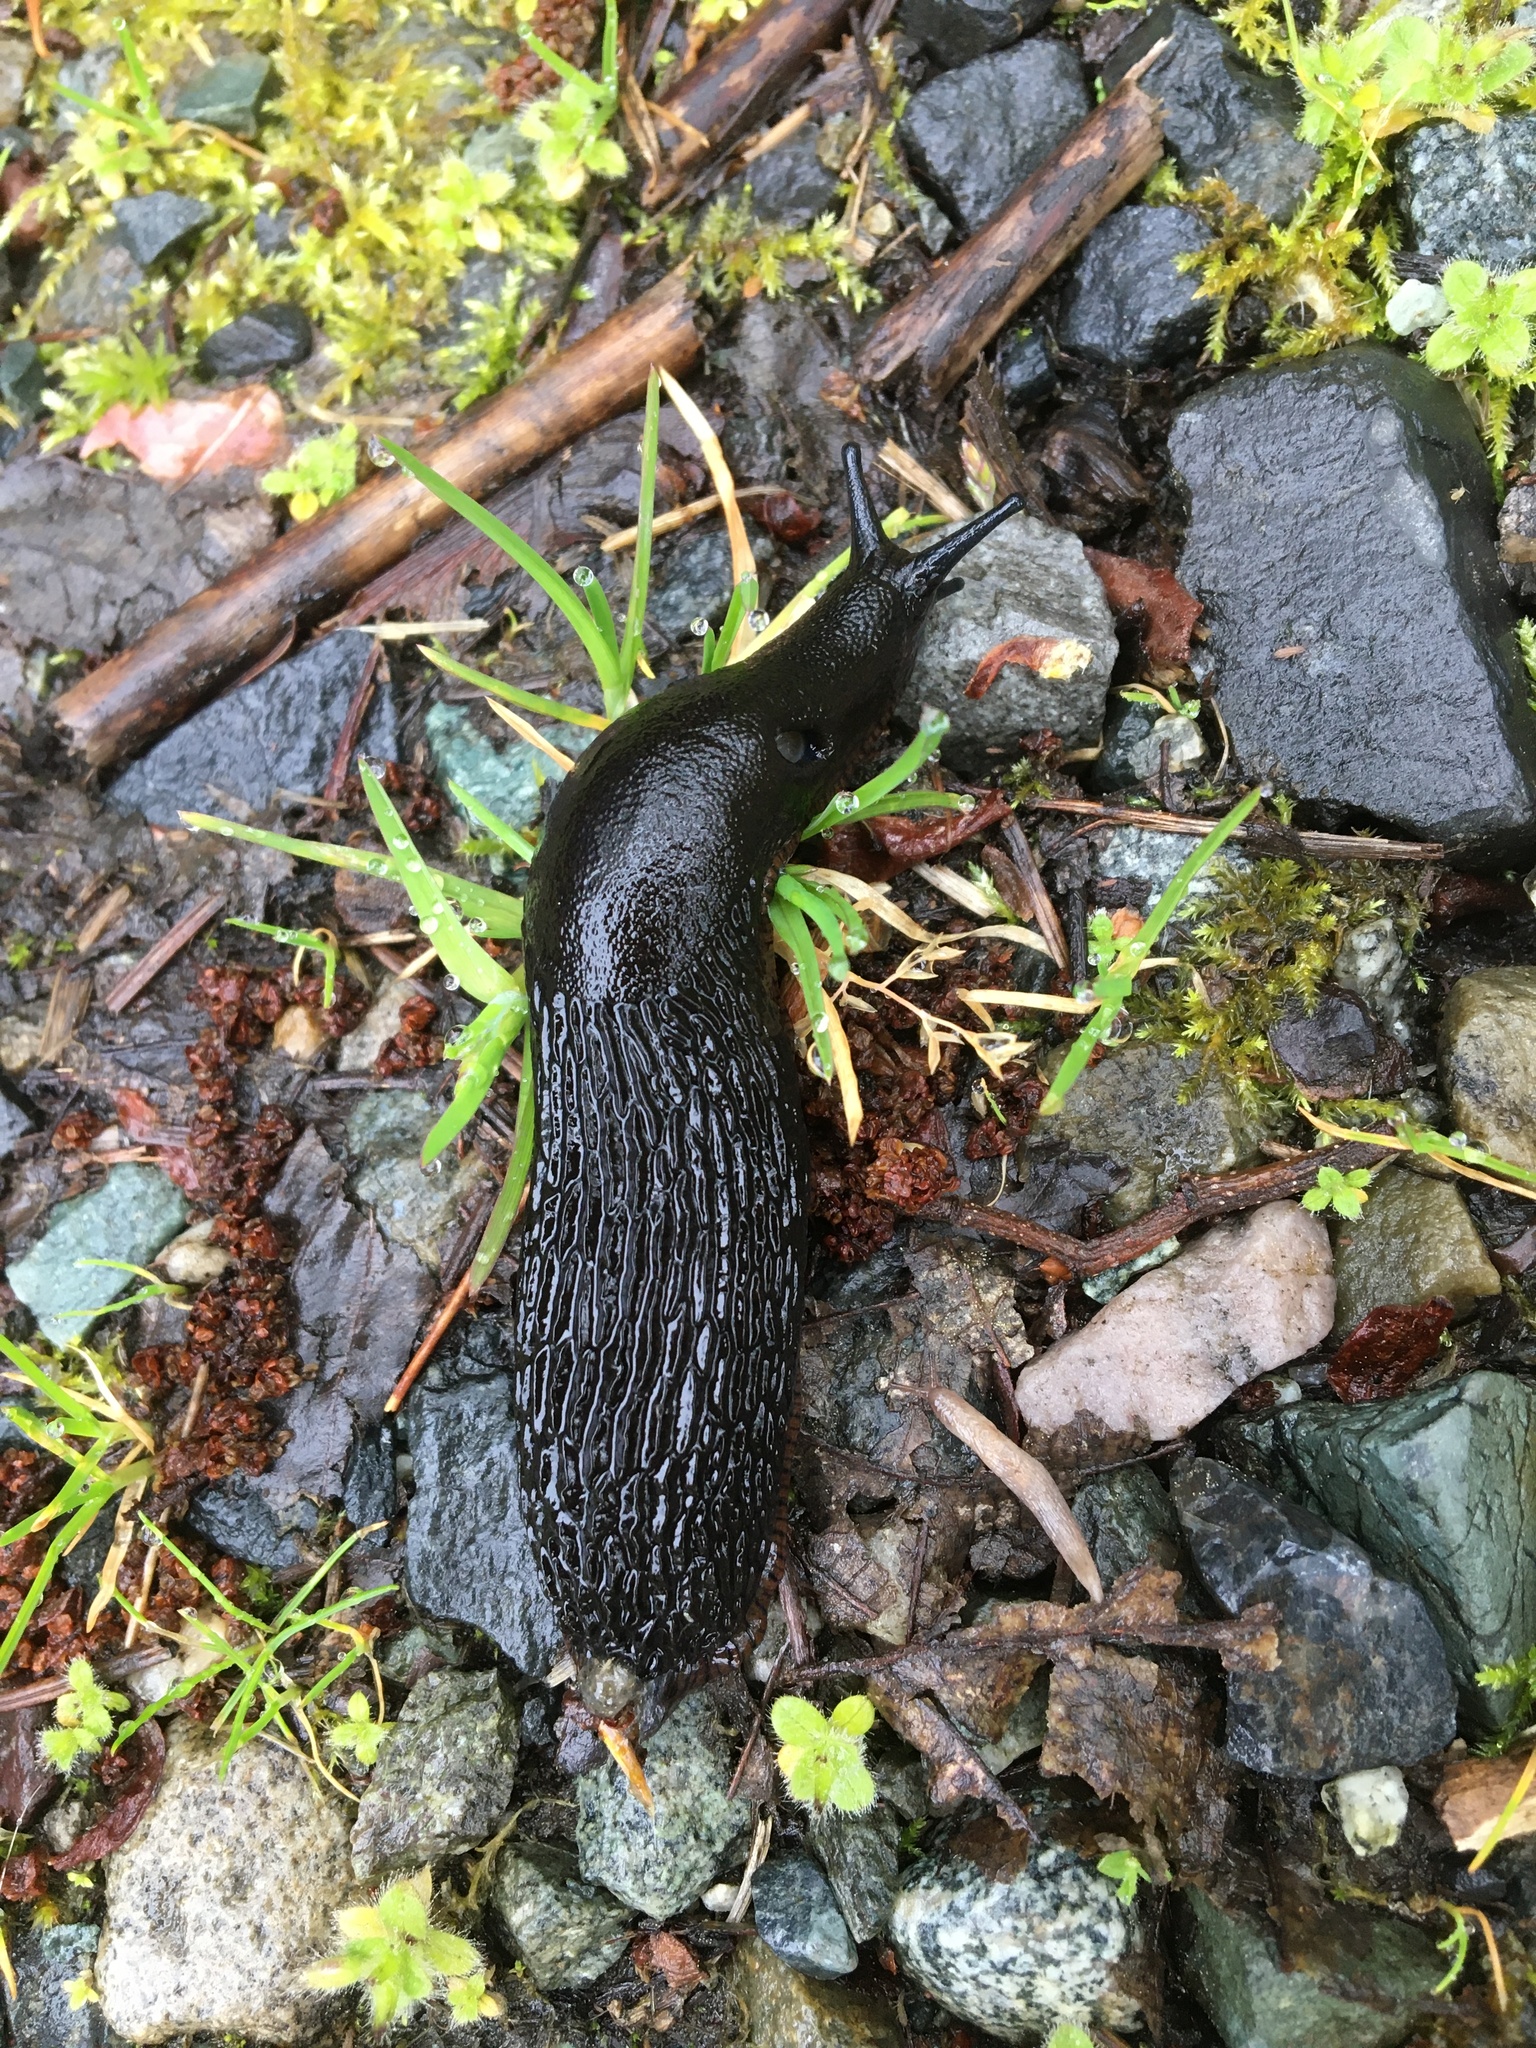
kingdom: Animalia
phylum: Mollusca
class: Gastropoda
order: Stylommatophora
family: Arionidae
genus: Arion
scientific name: Arion
